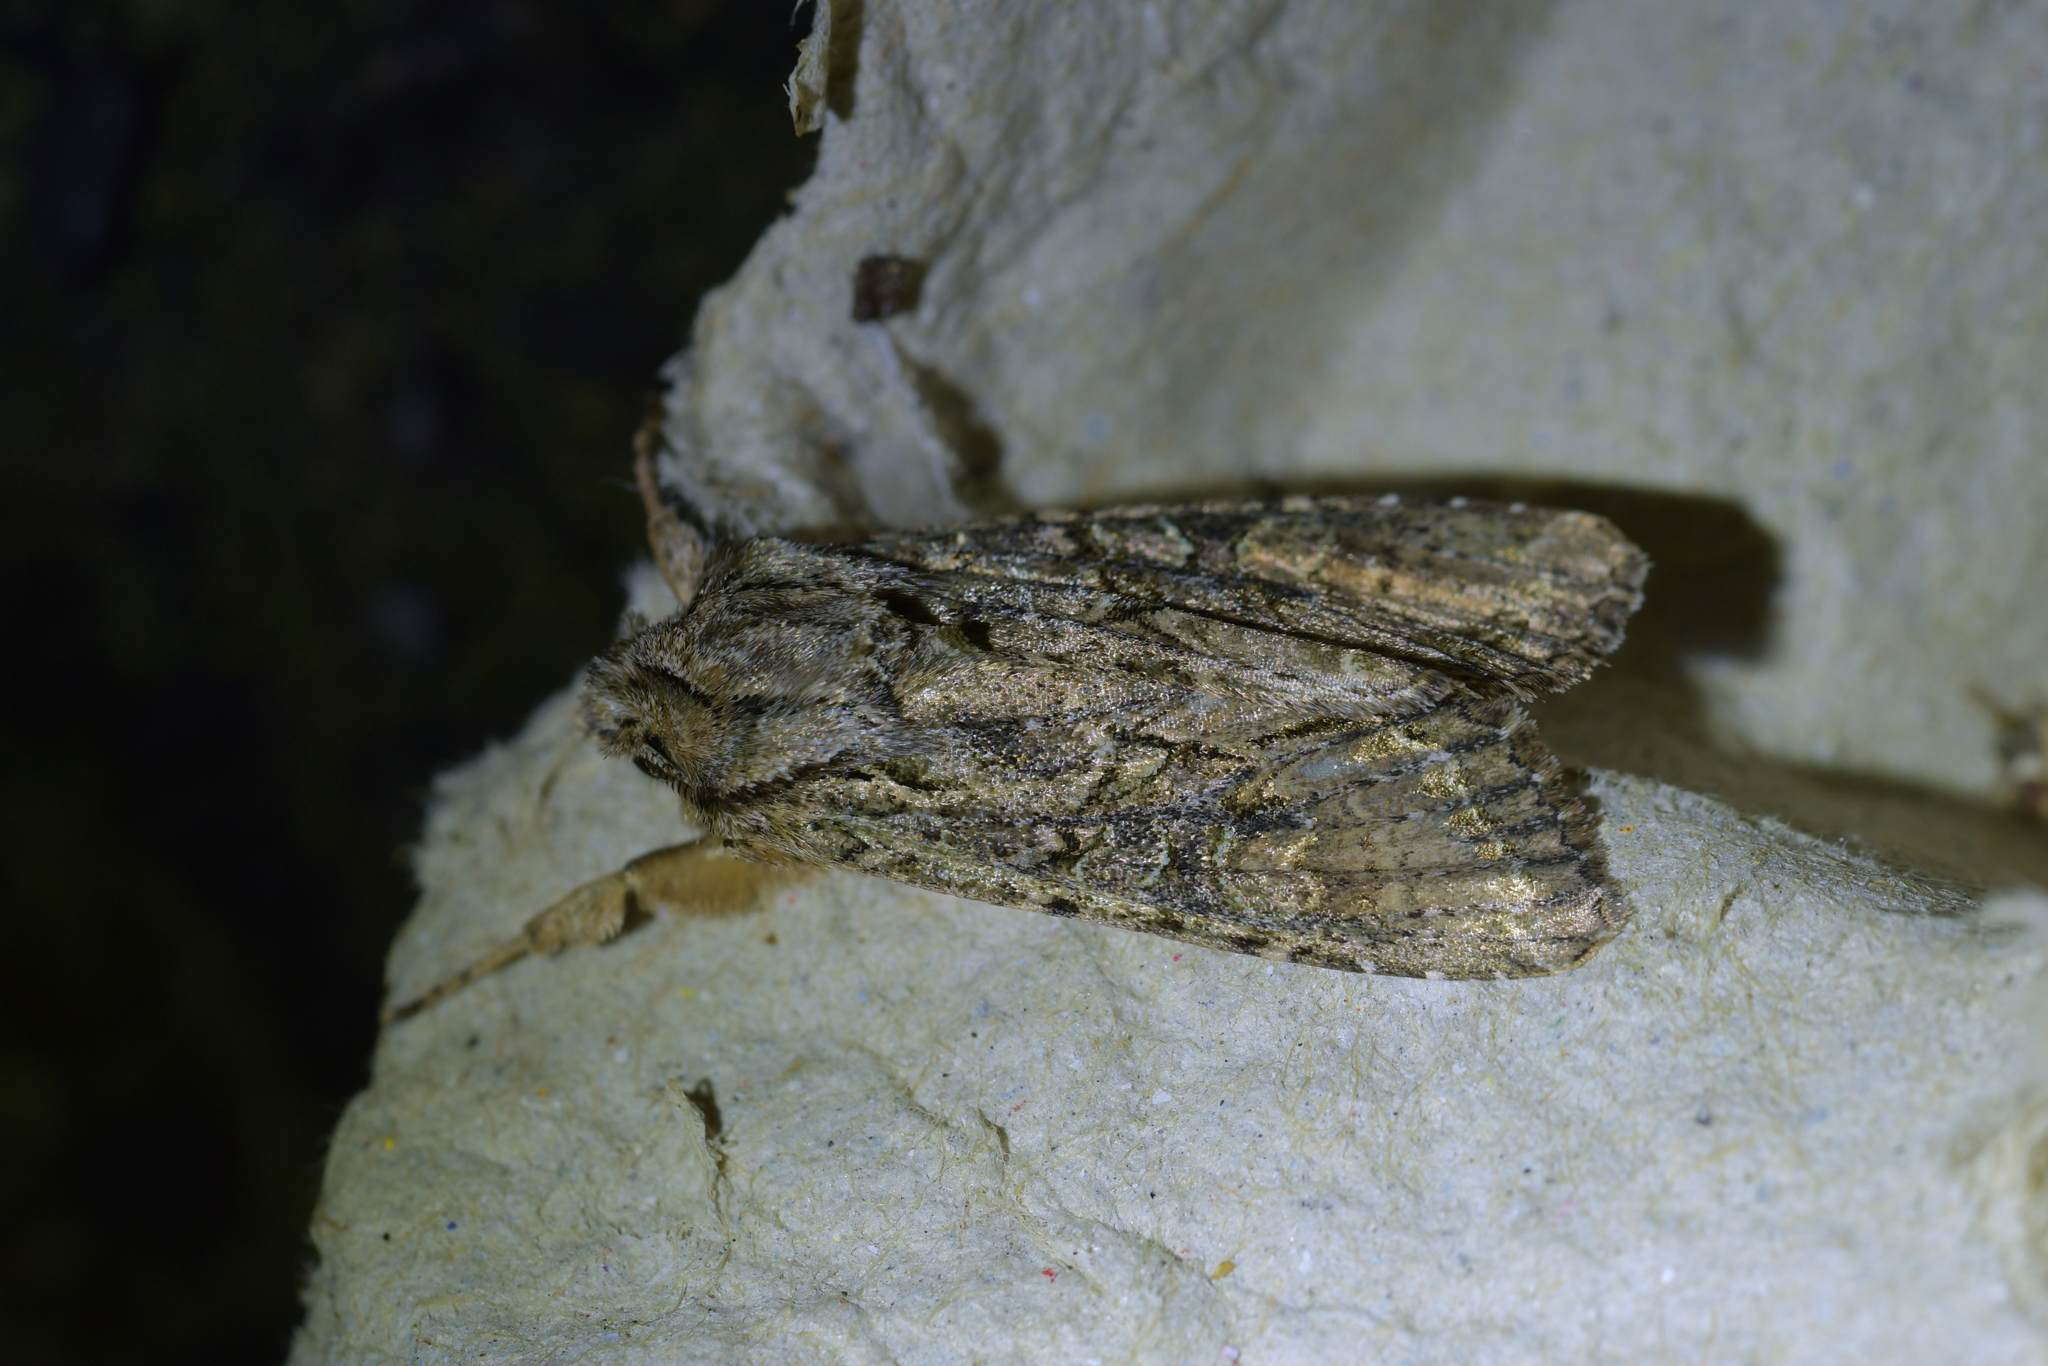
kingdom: Animalia
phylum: Arthropoda
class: Insecta
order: Lepidoptera
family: Noctuidae
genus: Ichneutica
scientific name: Ichneutica mutans
